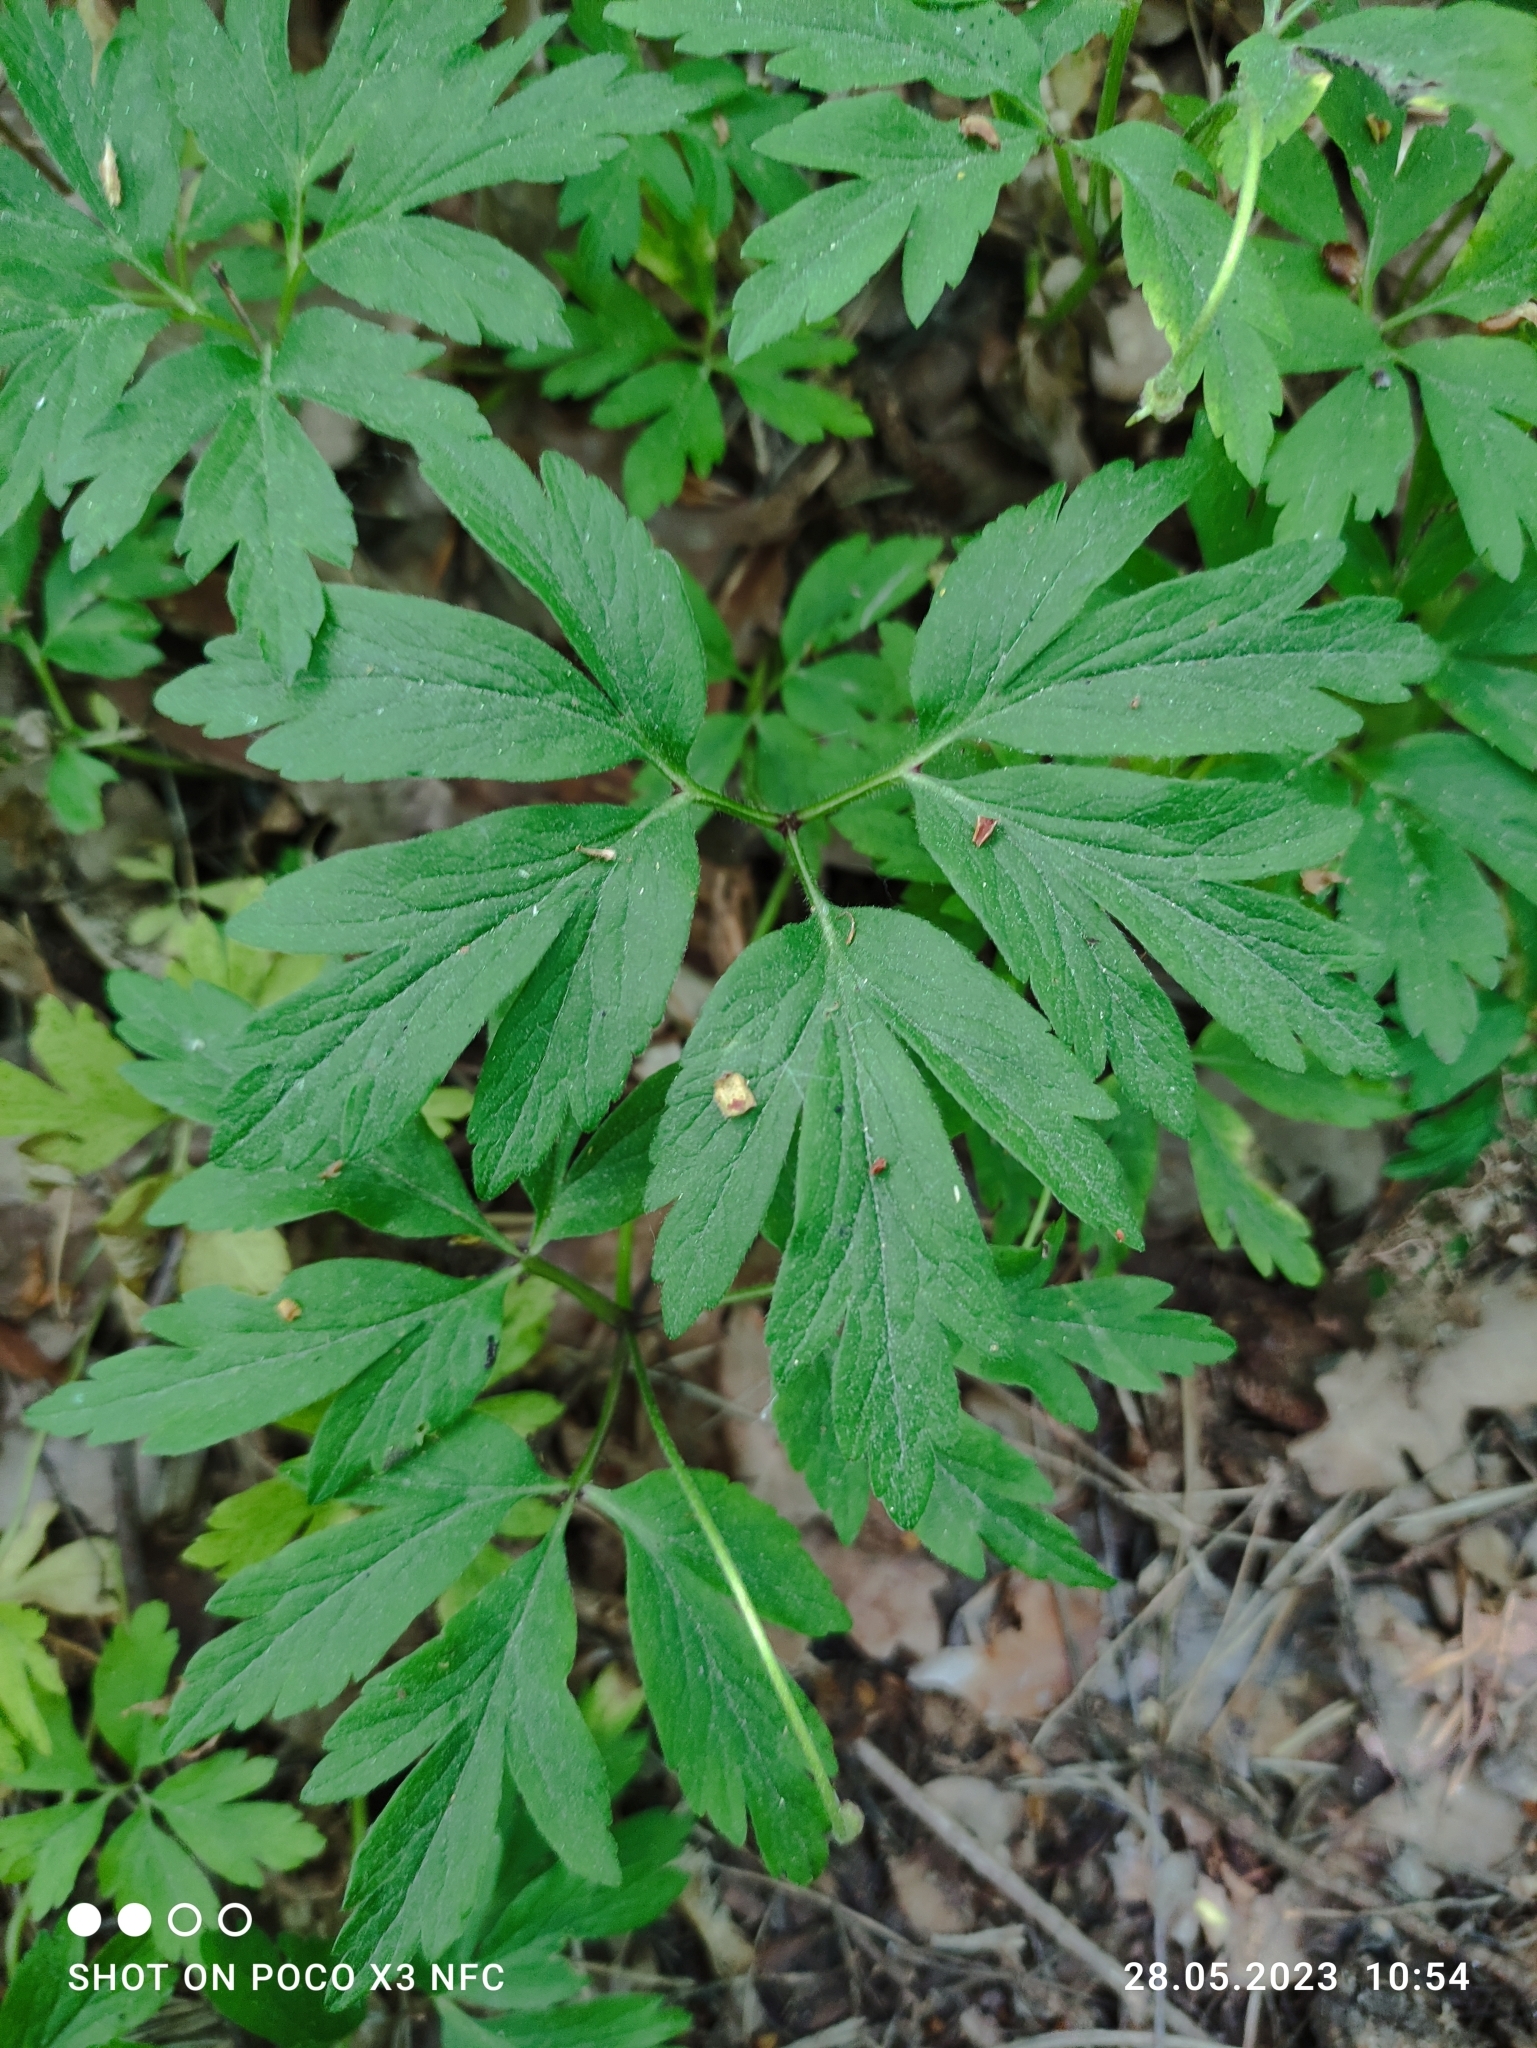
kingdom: Plantae
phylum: Tracheophyta
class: Magnoliopsida
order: Ranunculales
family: Ranunculaceae
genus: Anemone
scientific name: Anemone nemorosa
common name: Wood anemone
